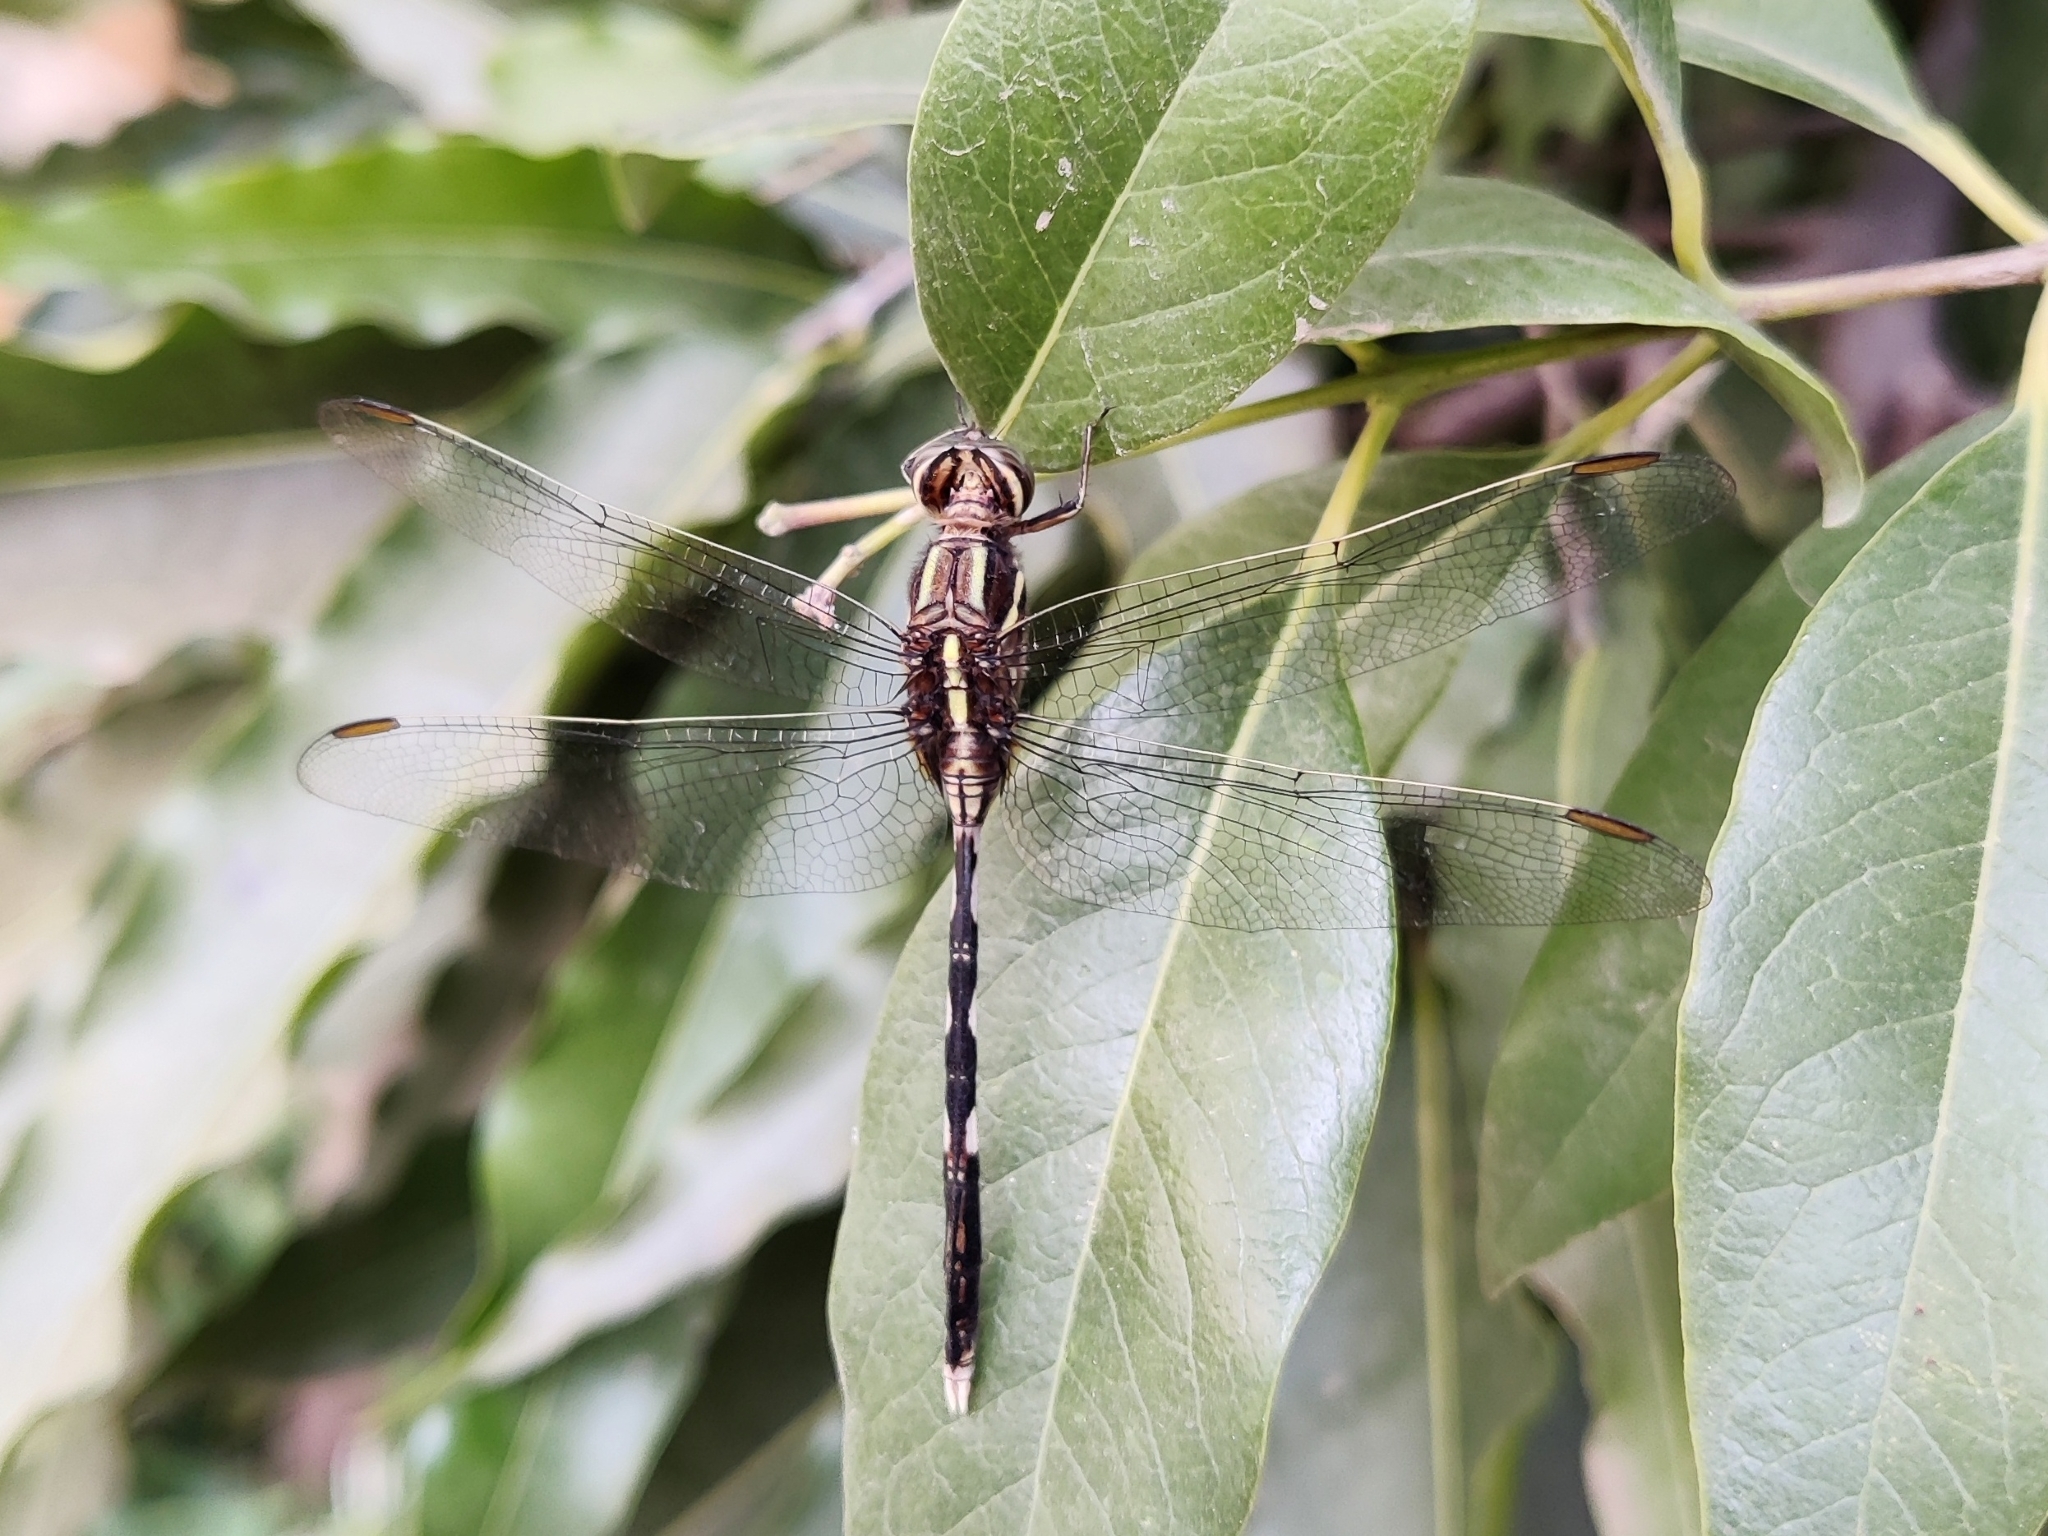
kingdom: Animalia
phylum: Arthropoda
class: Insecta
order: Odonata
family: Libellulidae
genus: Orthetrum
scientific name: Orthetrum sabina
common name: Slender skimmer
